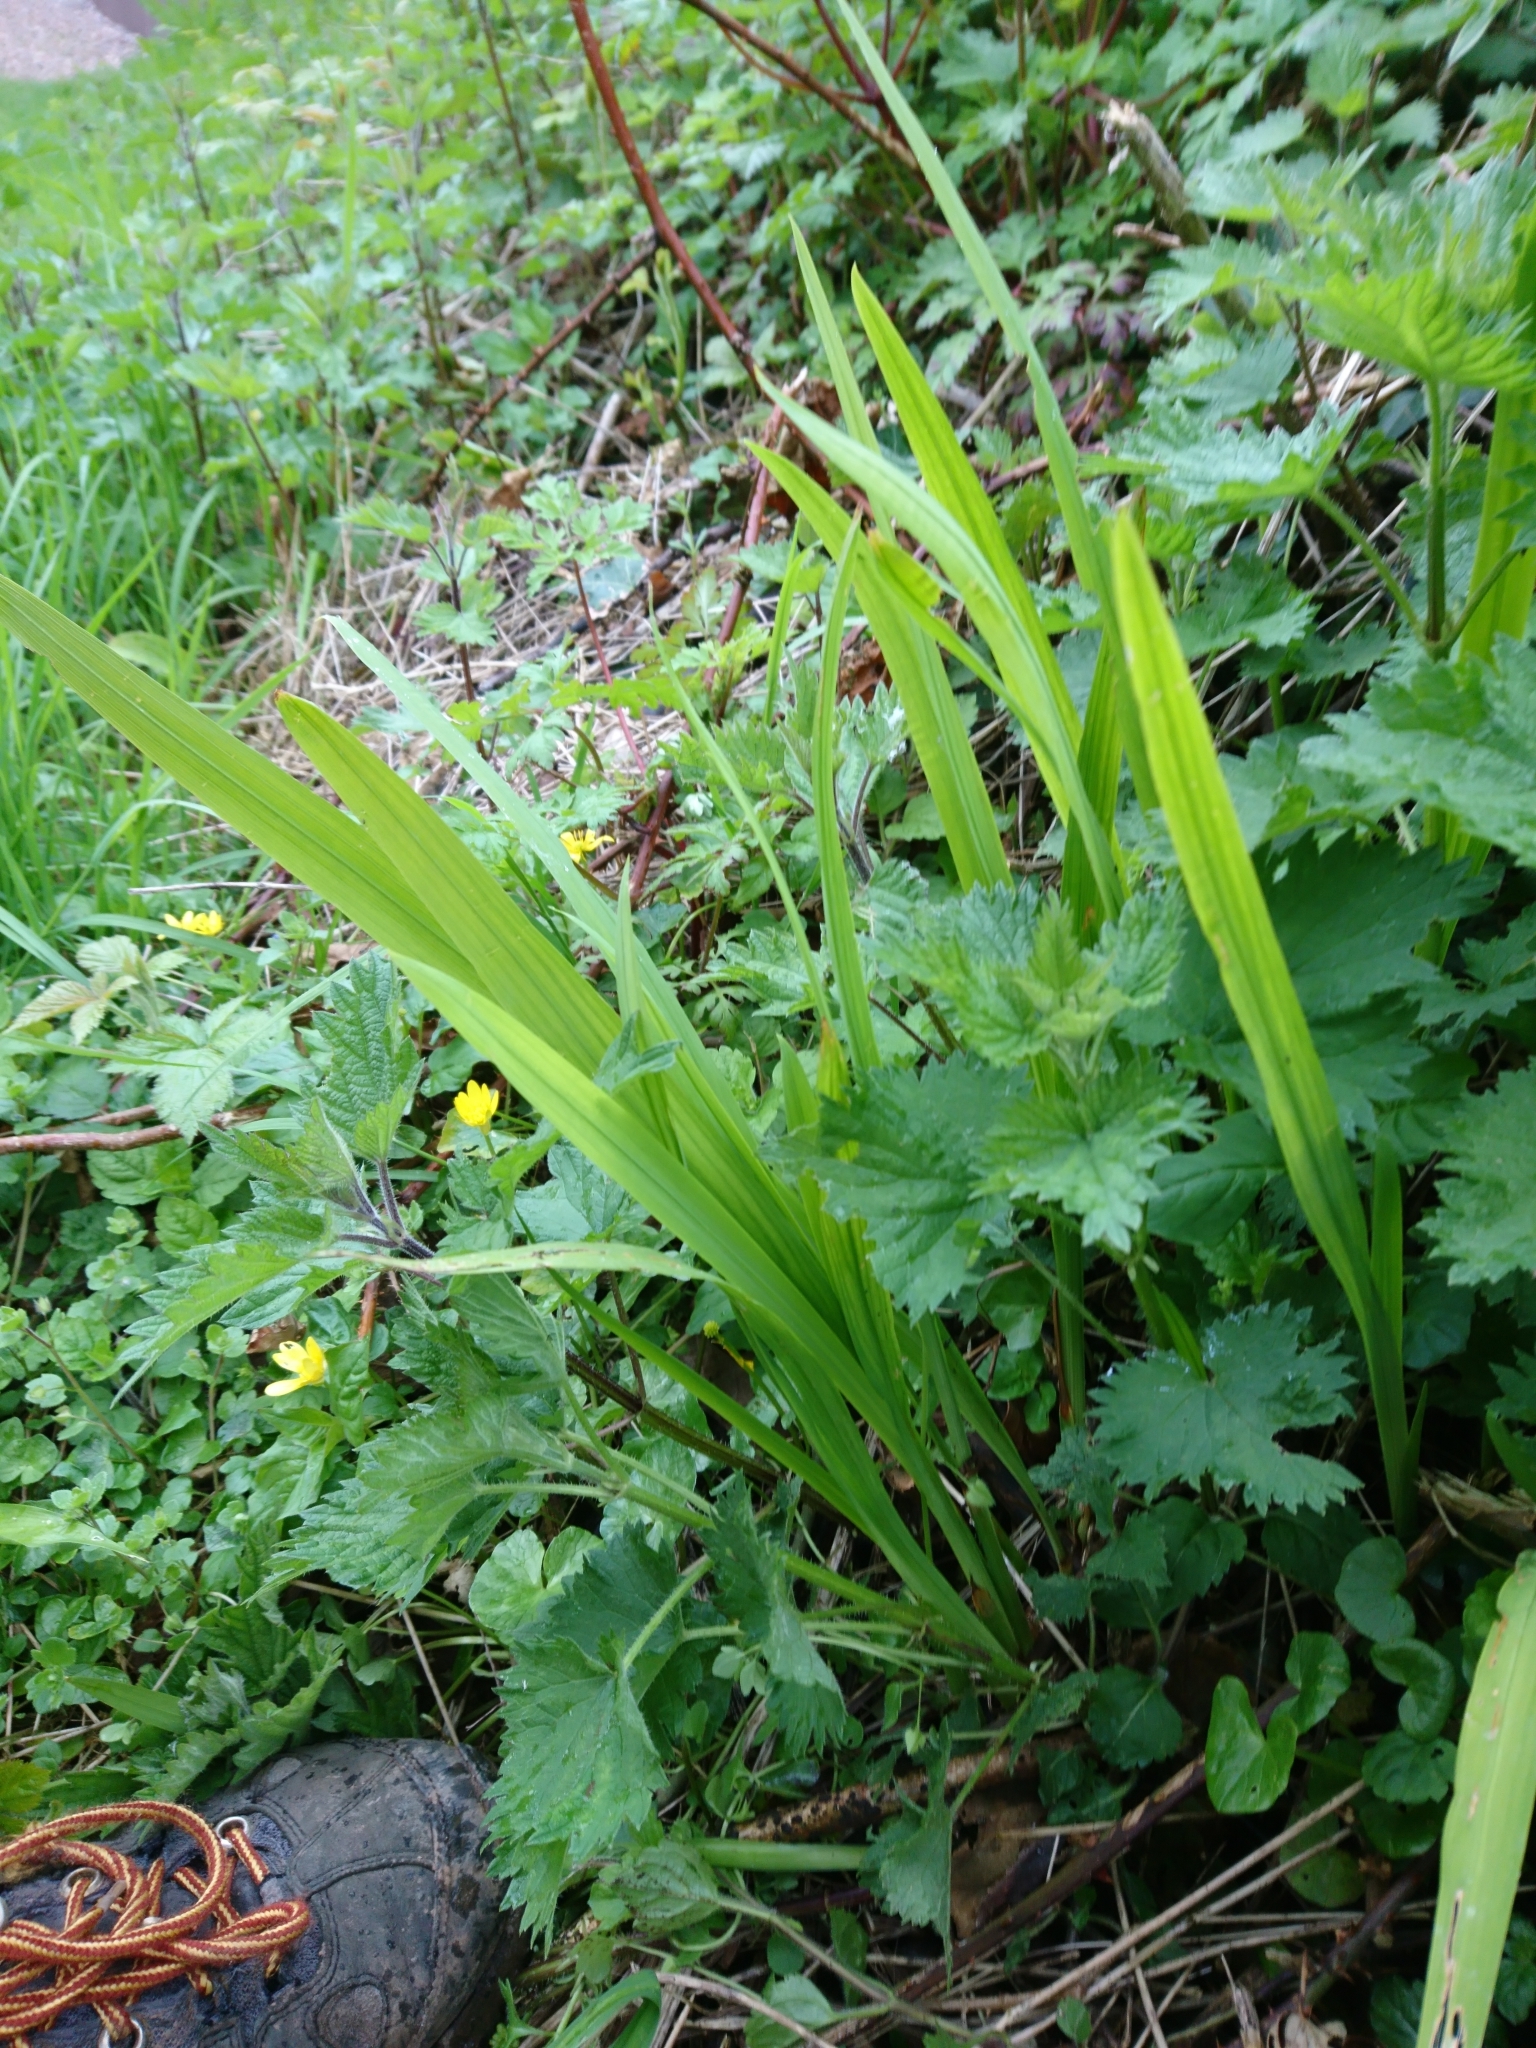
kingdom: Plantae
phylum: Tracheophyta
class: Liliopsida
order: Asparagales
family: Iridaceae
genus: Crocosmia
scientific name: Crocosmia crocosmiiflora
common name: Montbretia
